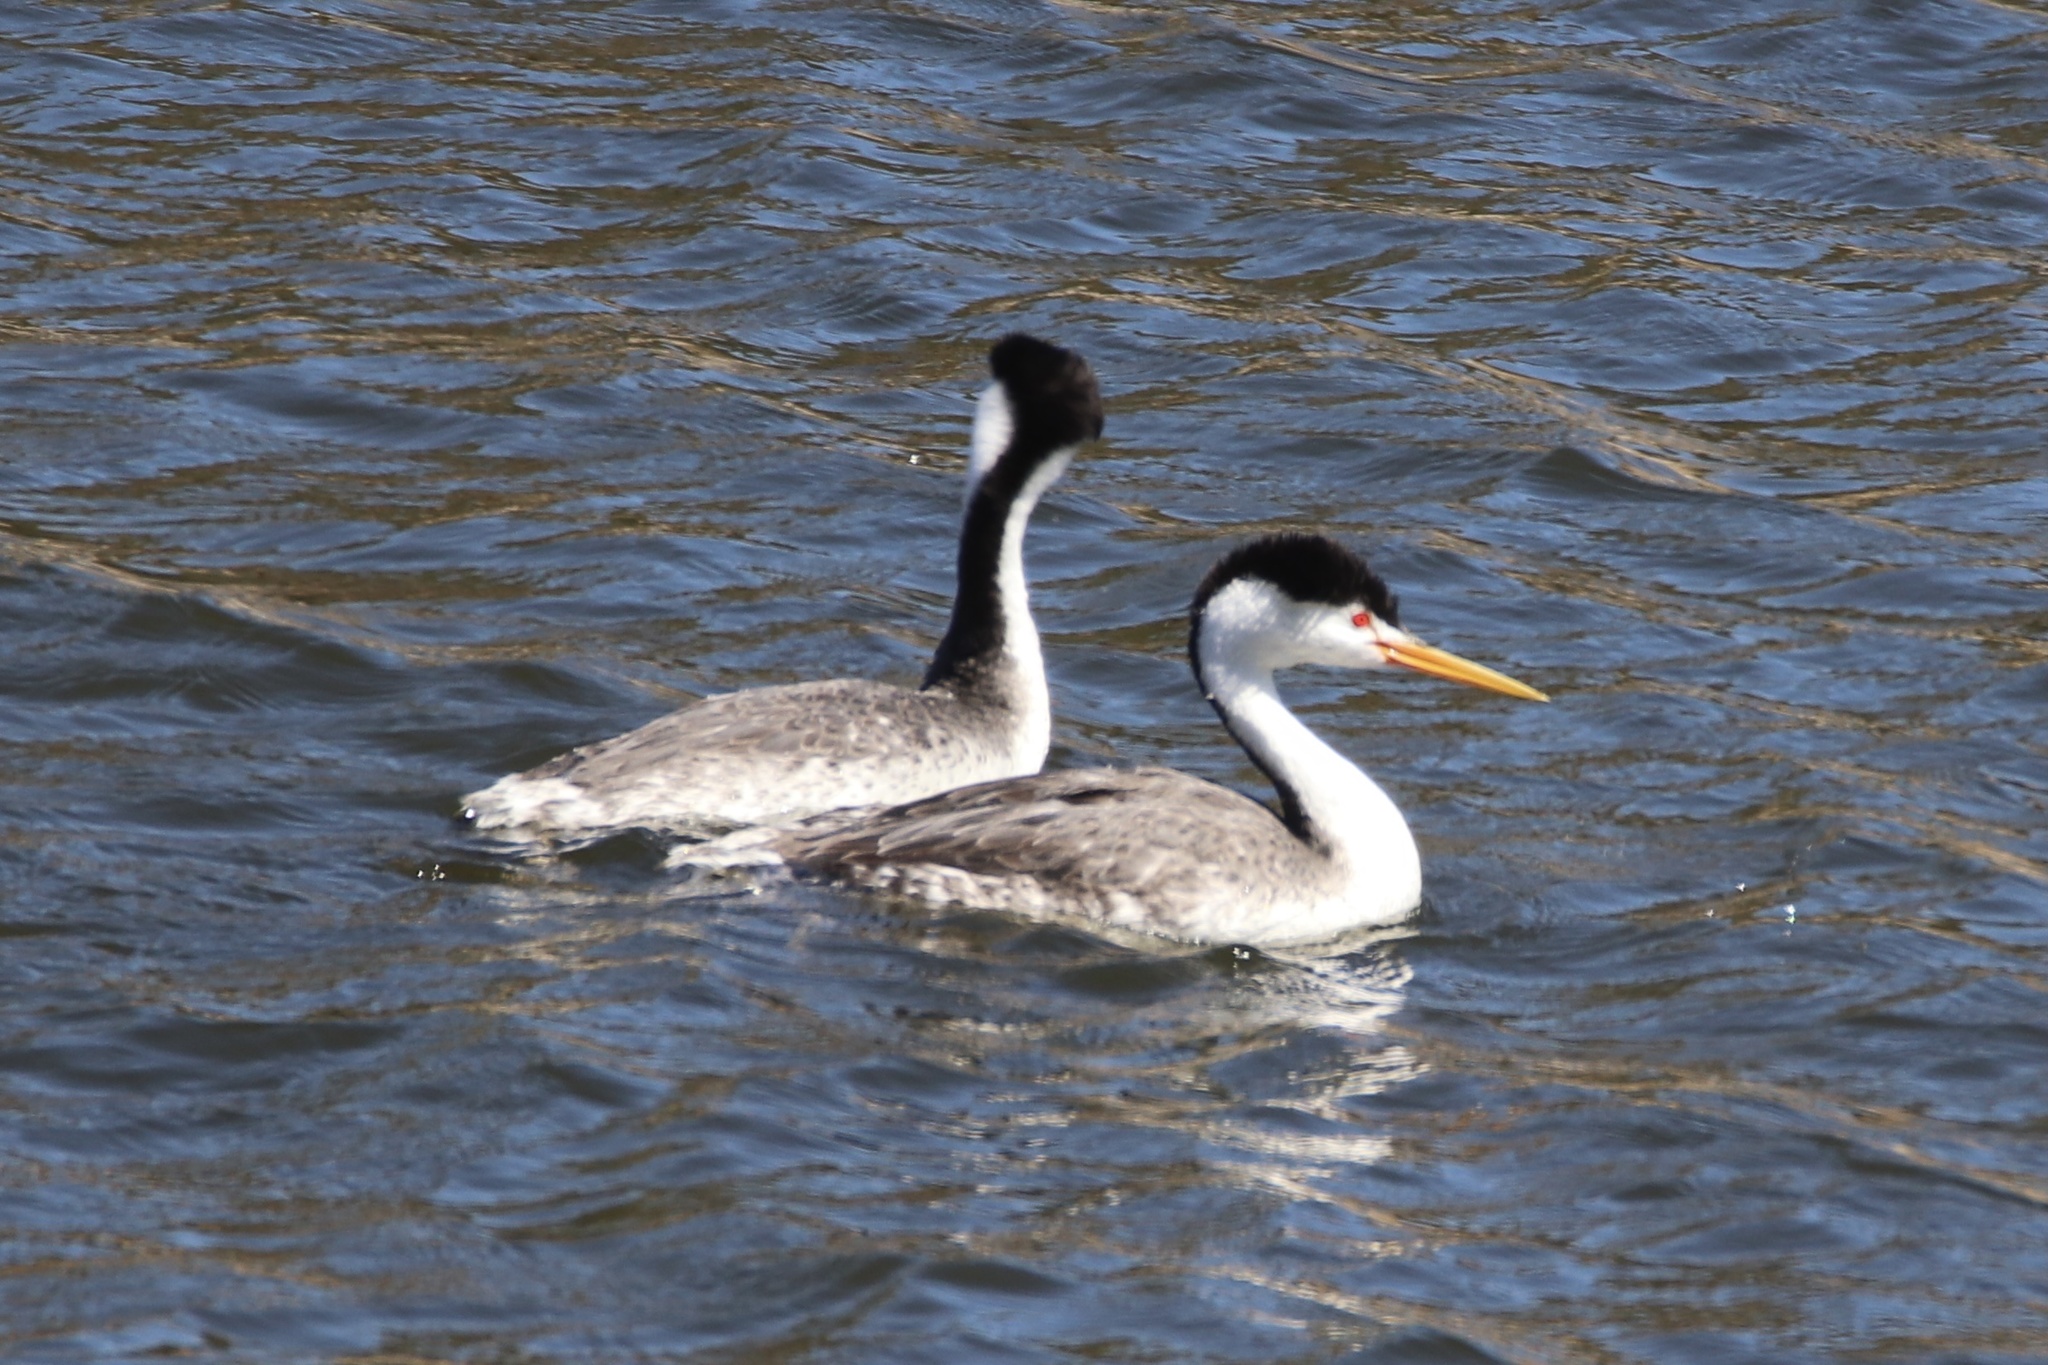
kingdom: Animalia
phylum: Chordata
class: Aves
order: Podicipediformes
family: Podicipedidae
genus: Aechmophorus
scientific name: Aechmophorus clarkii
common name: Clark's grebe
